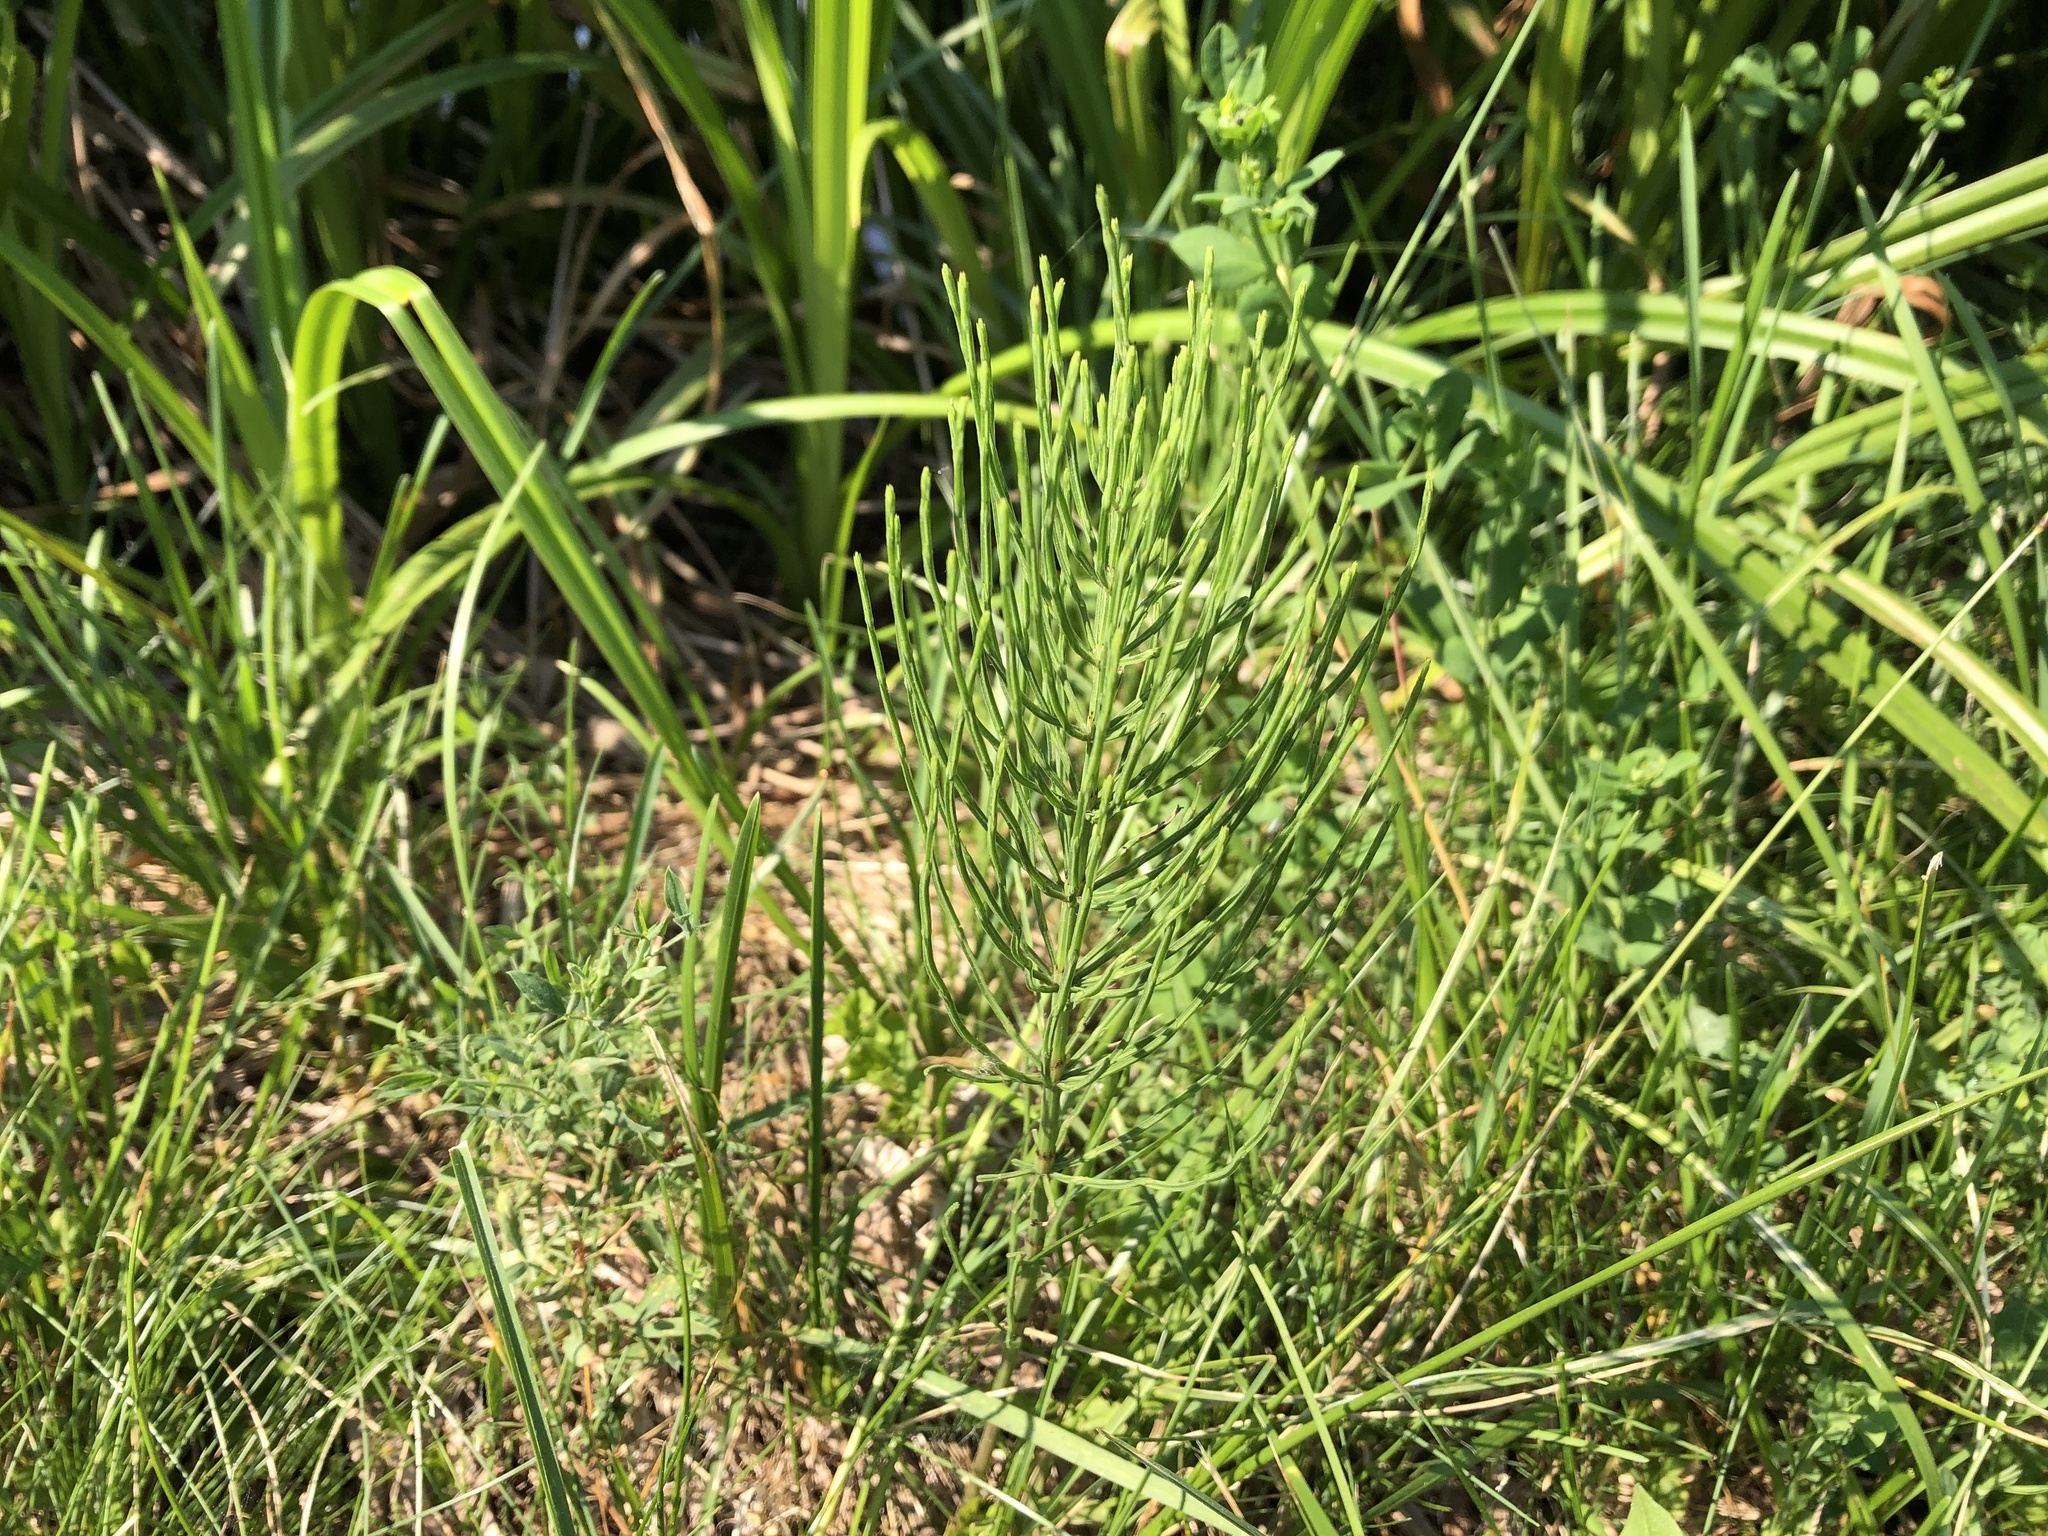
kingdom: Plantae
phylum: Tracheophyta
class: Polypodiopsida
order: Equisetales
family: Equisetaceae
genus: Equisetum
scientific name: Equisetum arvense
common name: Field horsetail
